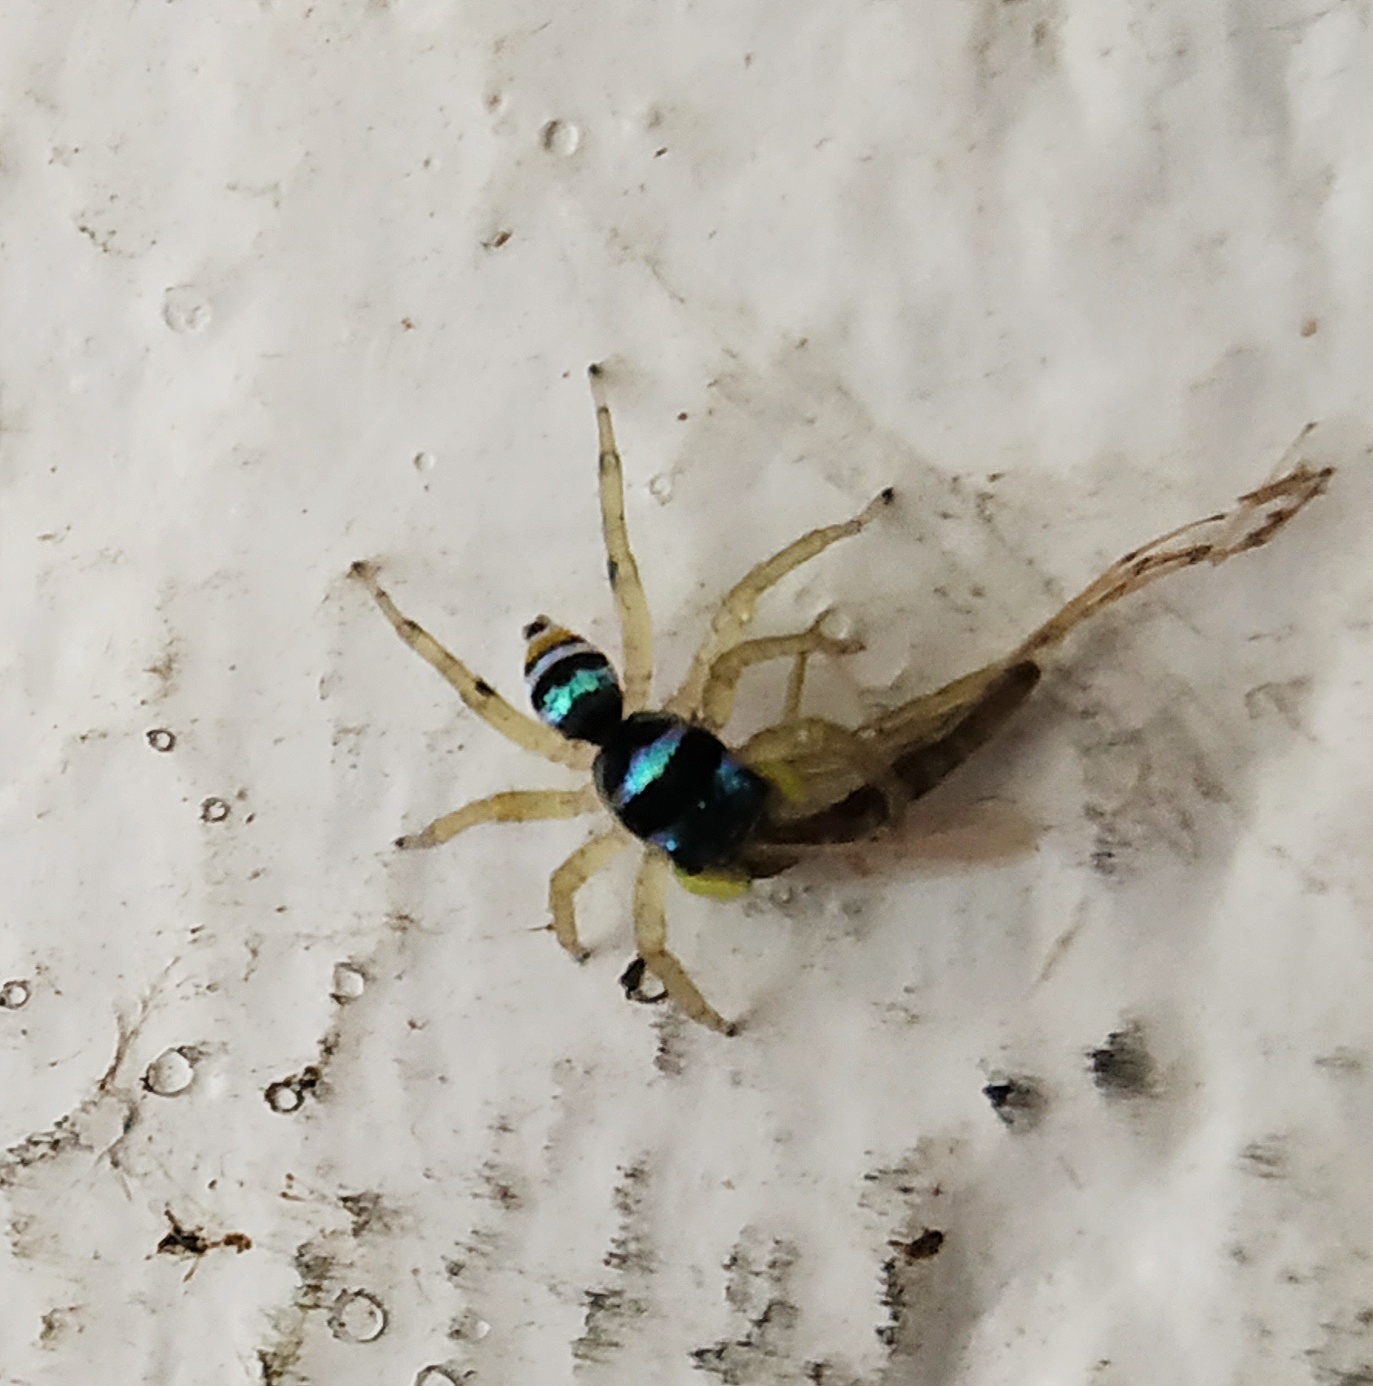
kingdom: Animalia
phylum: Arthropoda
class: Arachnida
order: Araneae
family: Salticidae
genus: Phintella
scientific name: Phintella vittata
